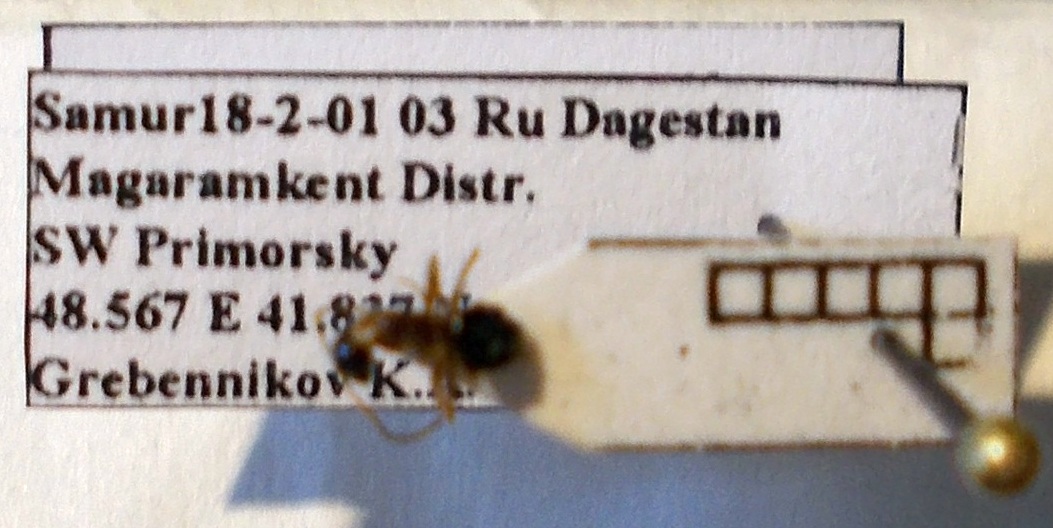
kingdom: Animalia
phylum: Arthropoda
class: Insecta
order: Hymenoptera
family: Formicidae
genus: Camponotus
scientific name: Camponotus truncatus
